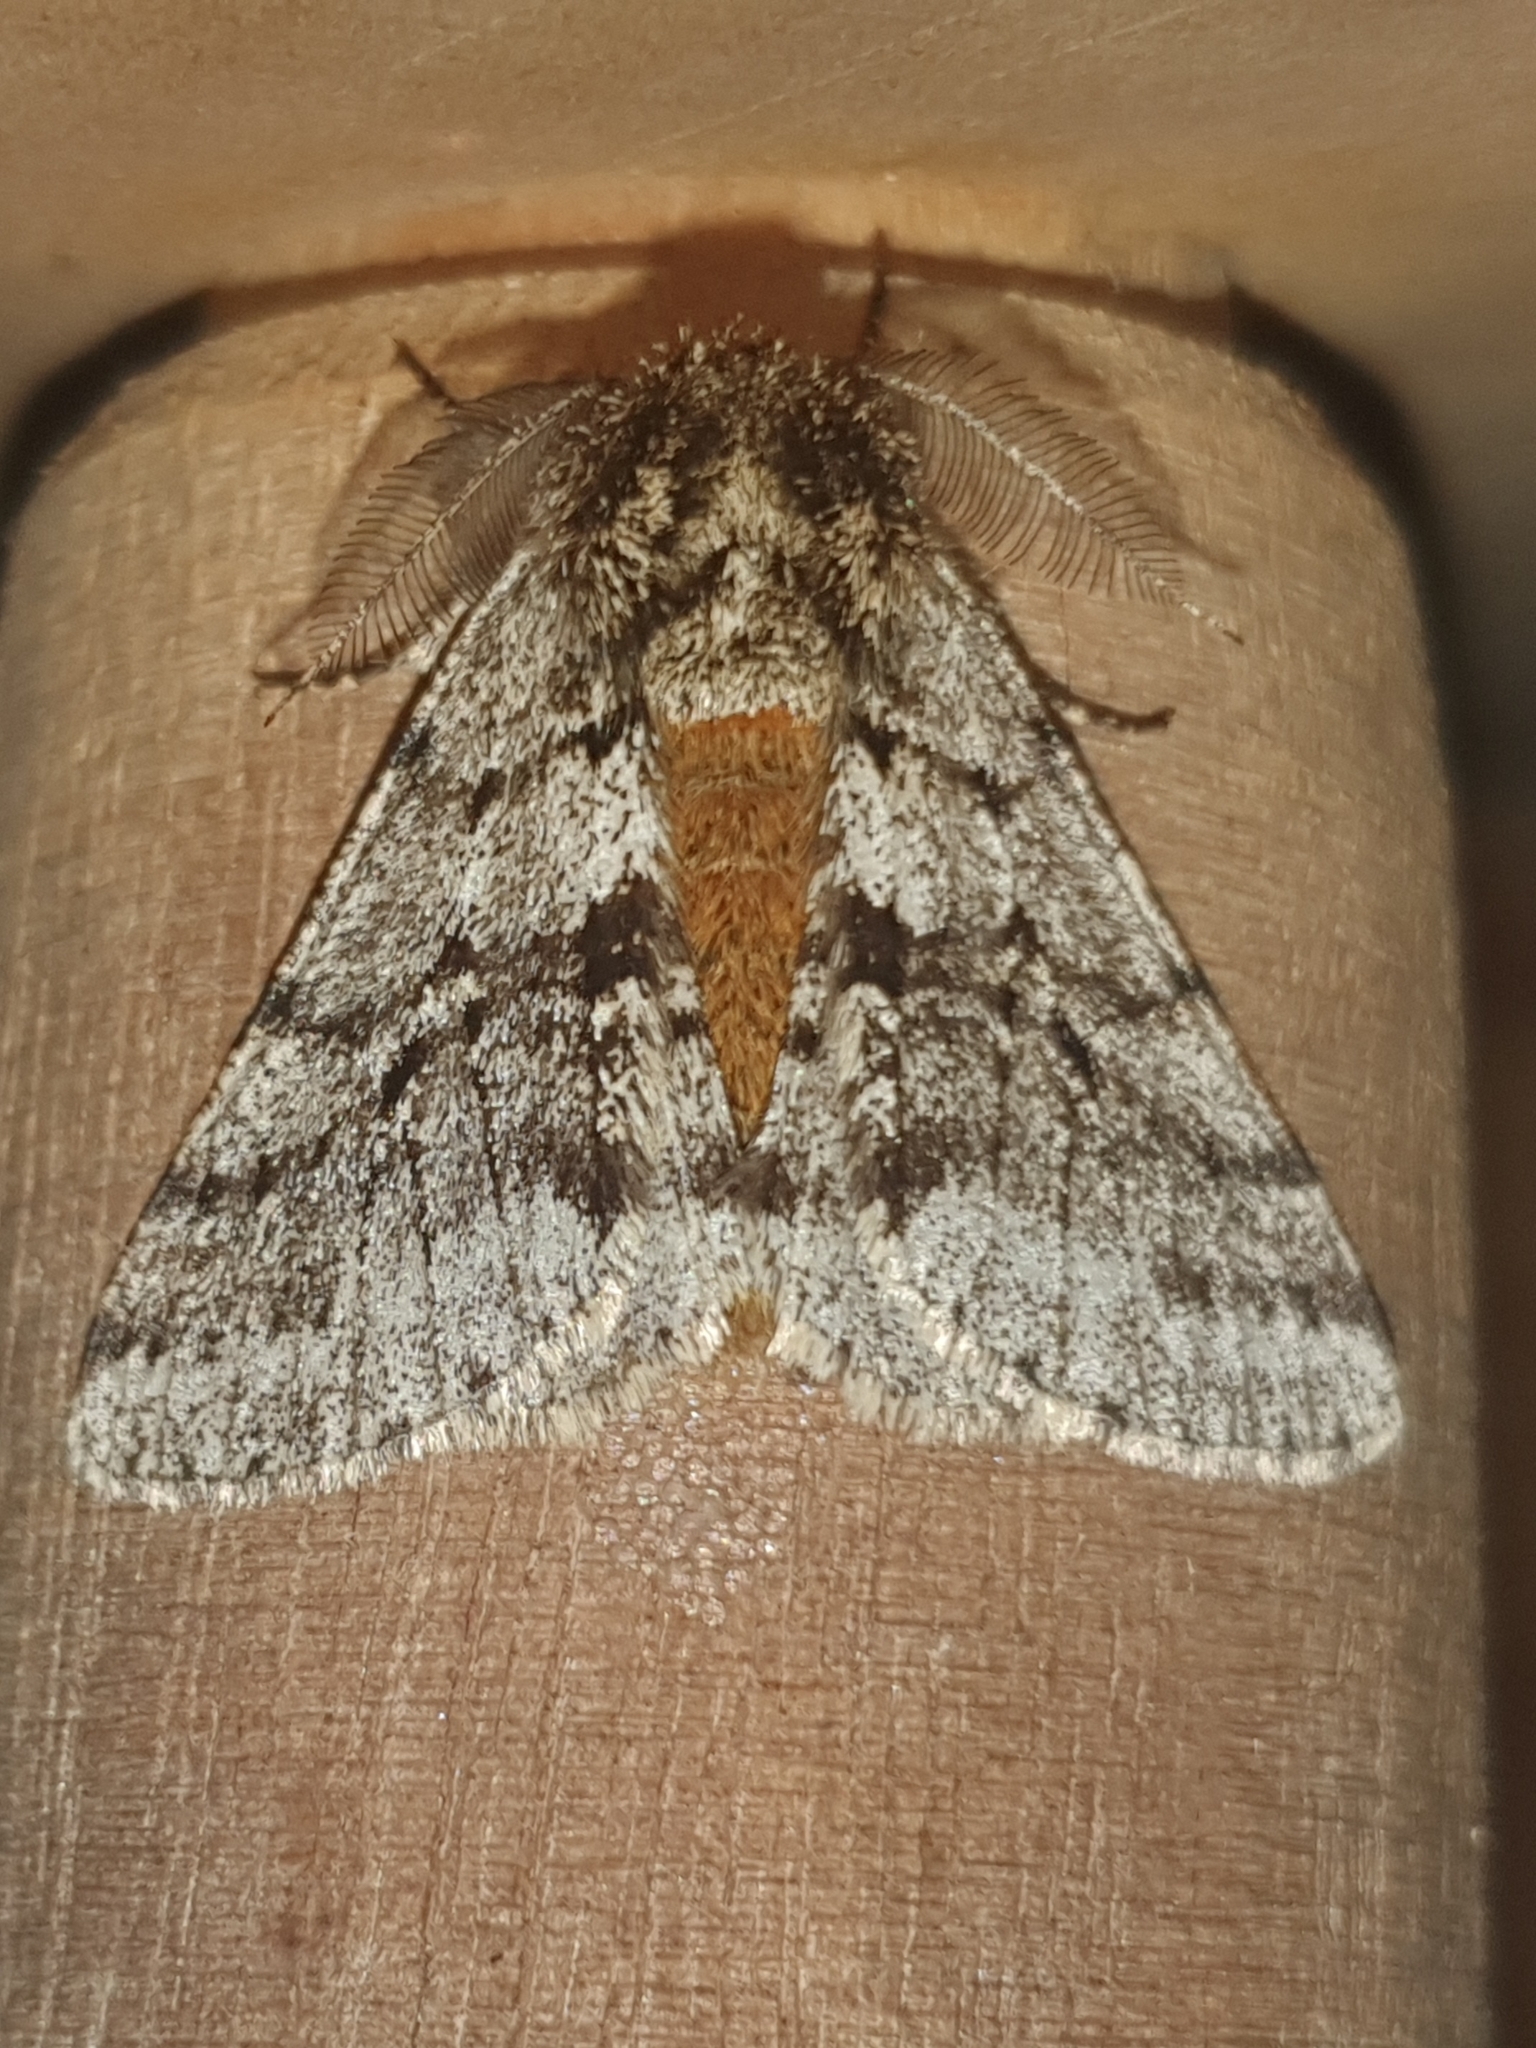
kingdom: Animalia
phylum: Arthropoda
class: Insecta
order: Lepidoptera
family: Geometridae
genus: Lycia
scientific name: Lycia hirtaria
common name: Brindled beauty
